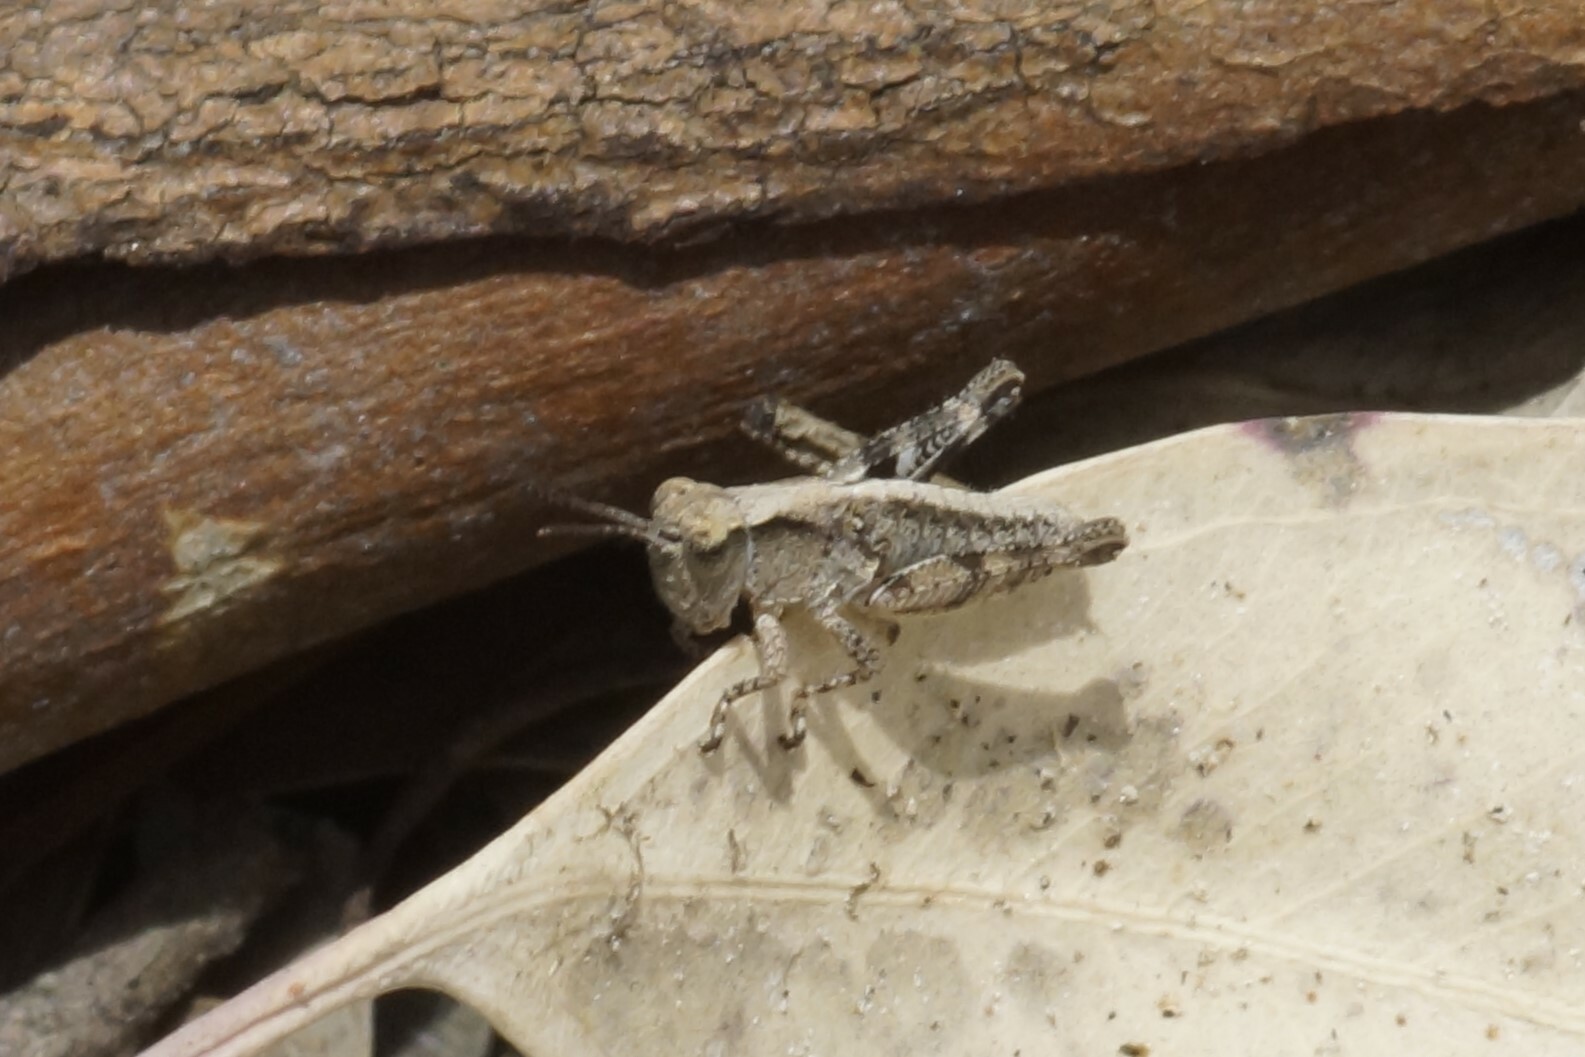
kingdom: Animalia
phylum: Arthropoda
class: Insecta
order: Orthoptera
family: Acrididae
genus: Phaulacridium
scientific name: Phaulacridium vittatum
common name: Wingless grasshopper
